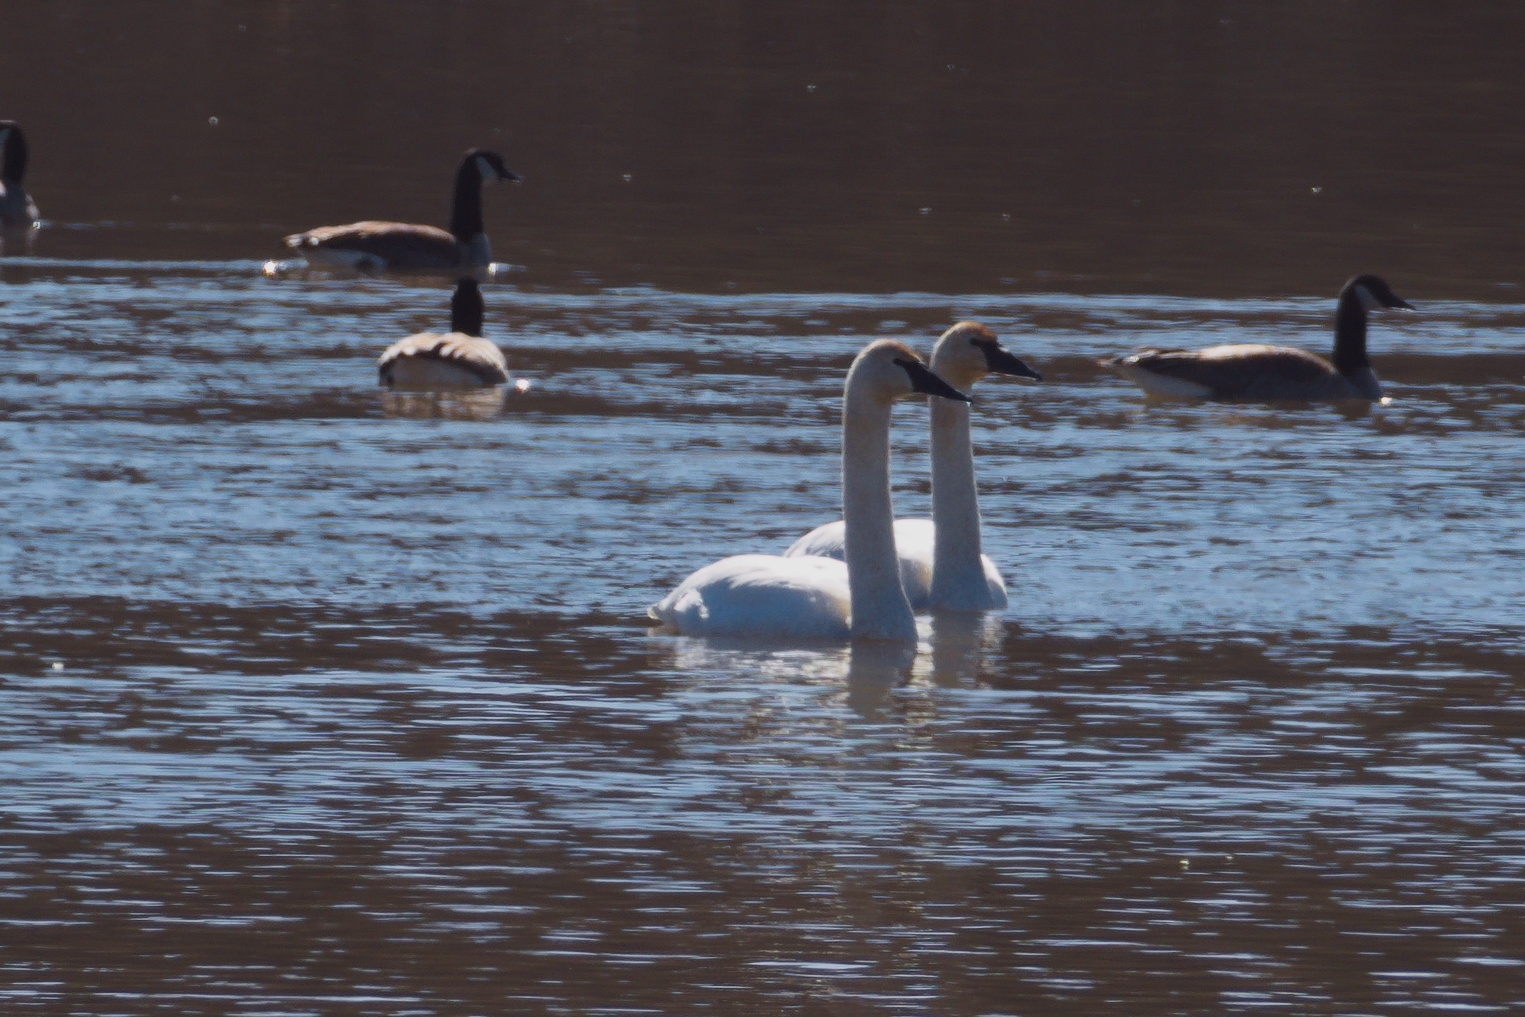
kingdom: Animalia
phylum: Chordata
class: Aves
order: Anseriformes
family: Anatidae
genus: Cygnus
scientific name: Cygnus buccinator
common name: Trumpeter swan
